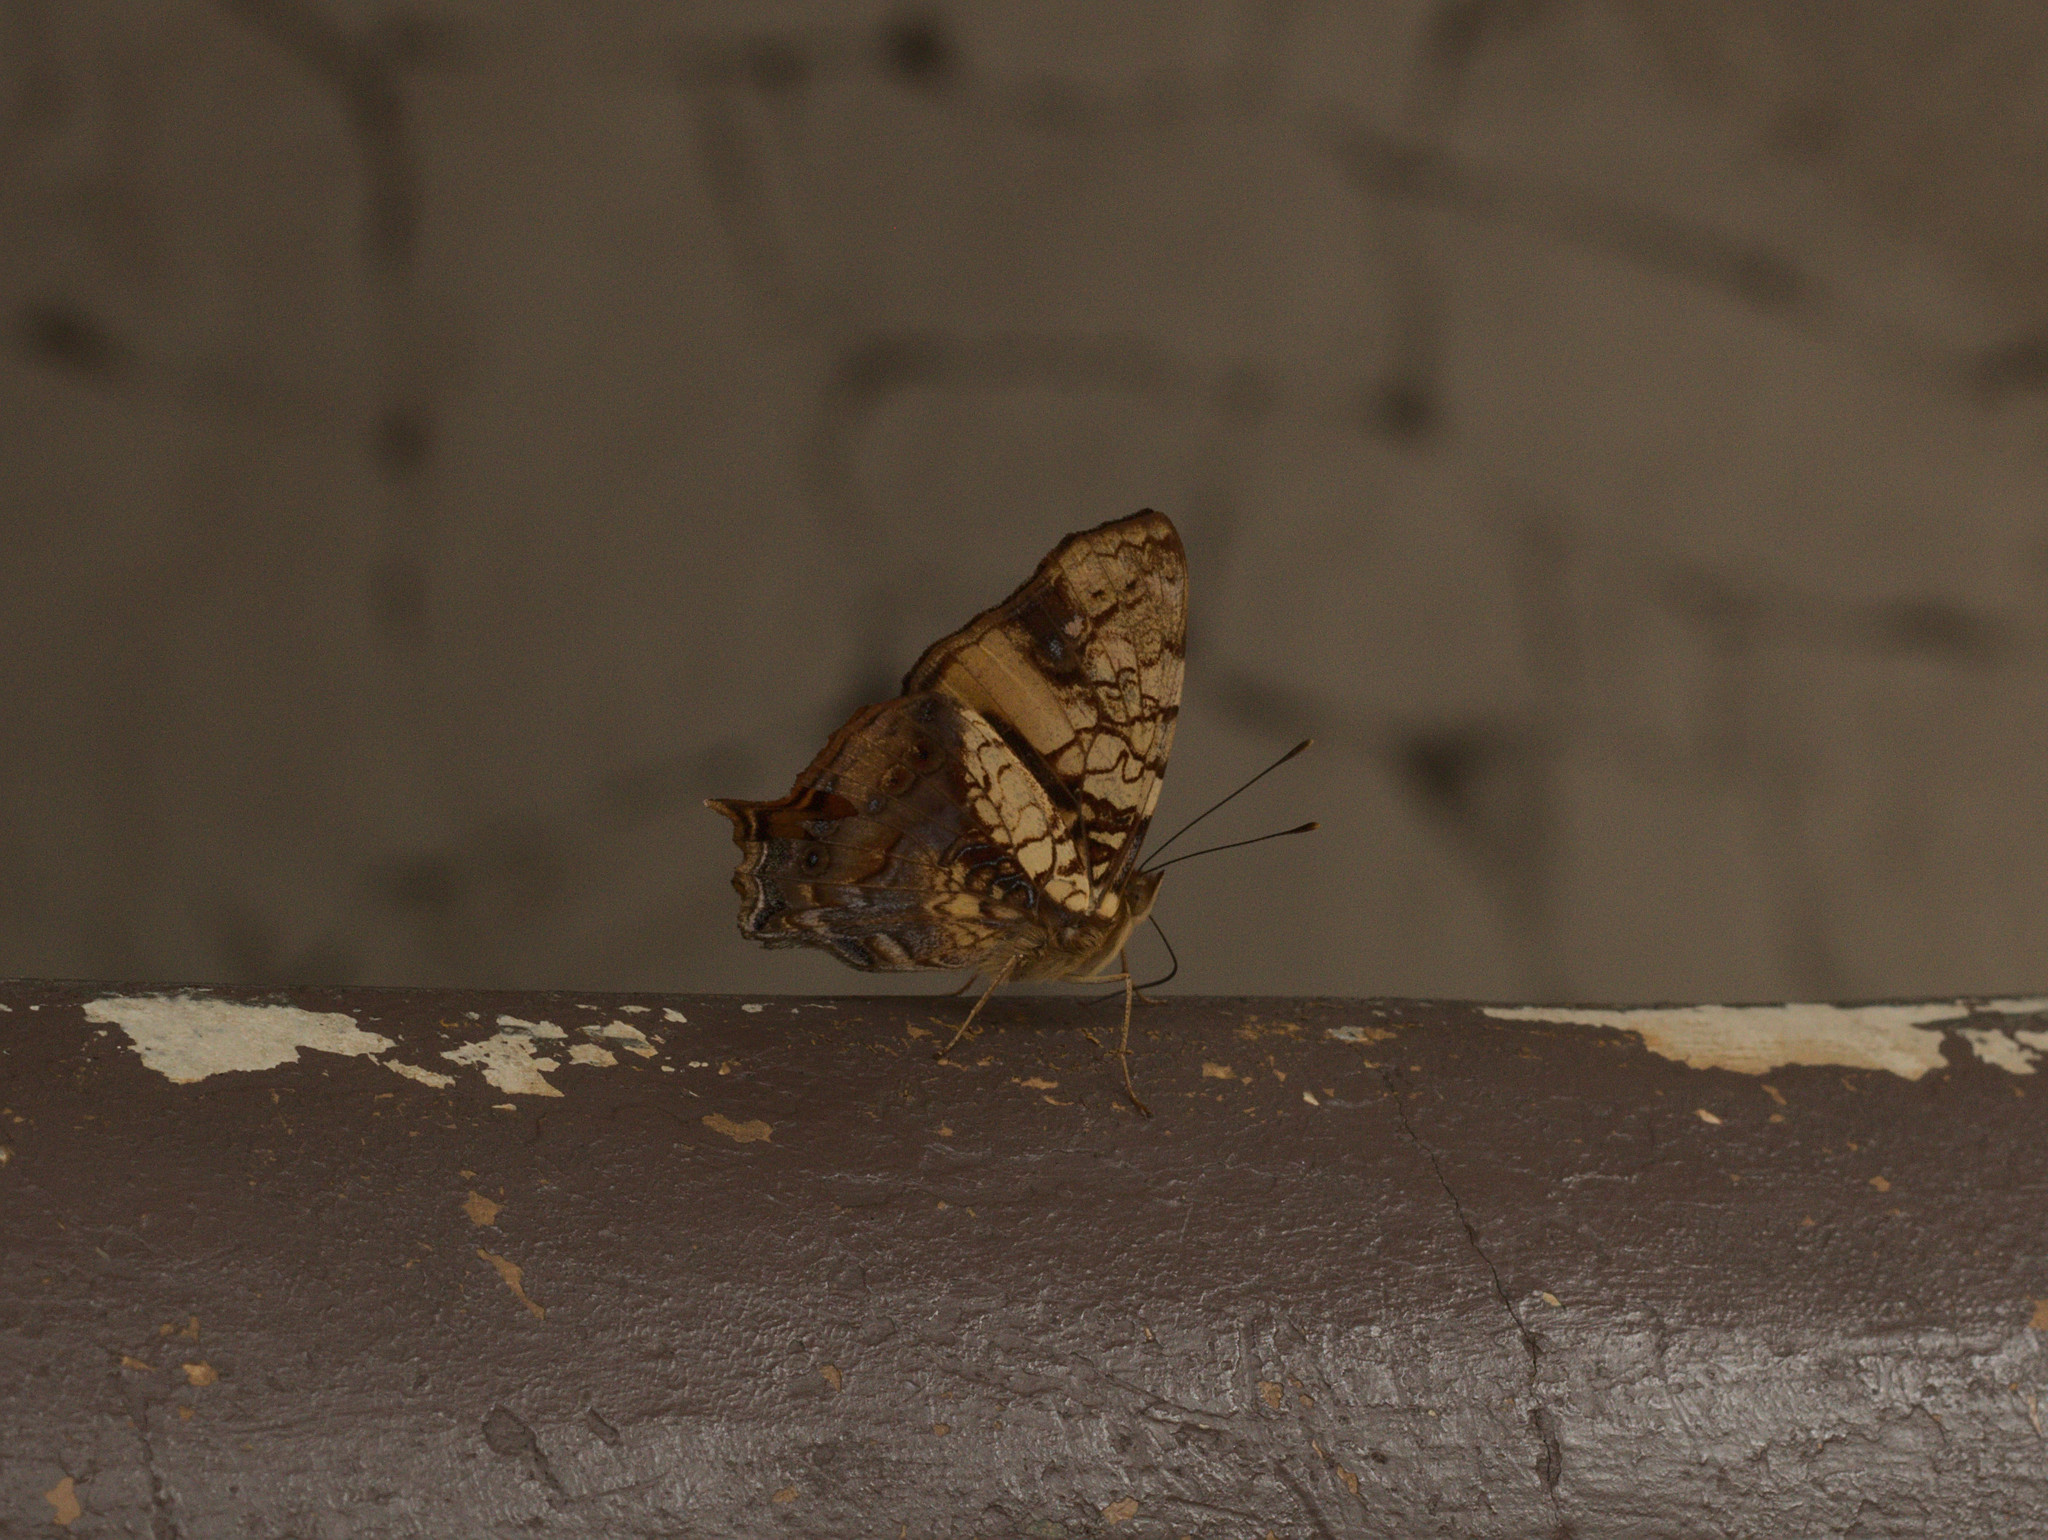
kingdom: Animalia
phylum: Arthropoda
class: Insecta
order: Lepidoptera
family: Nymphalidae
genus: Hypanartia
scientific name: Hypanartia lethe
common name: Orange mapwing
